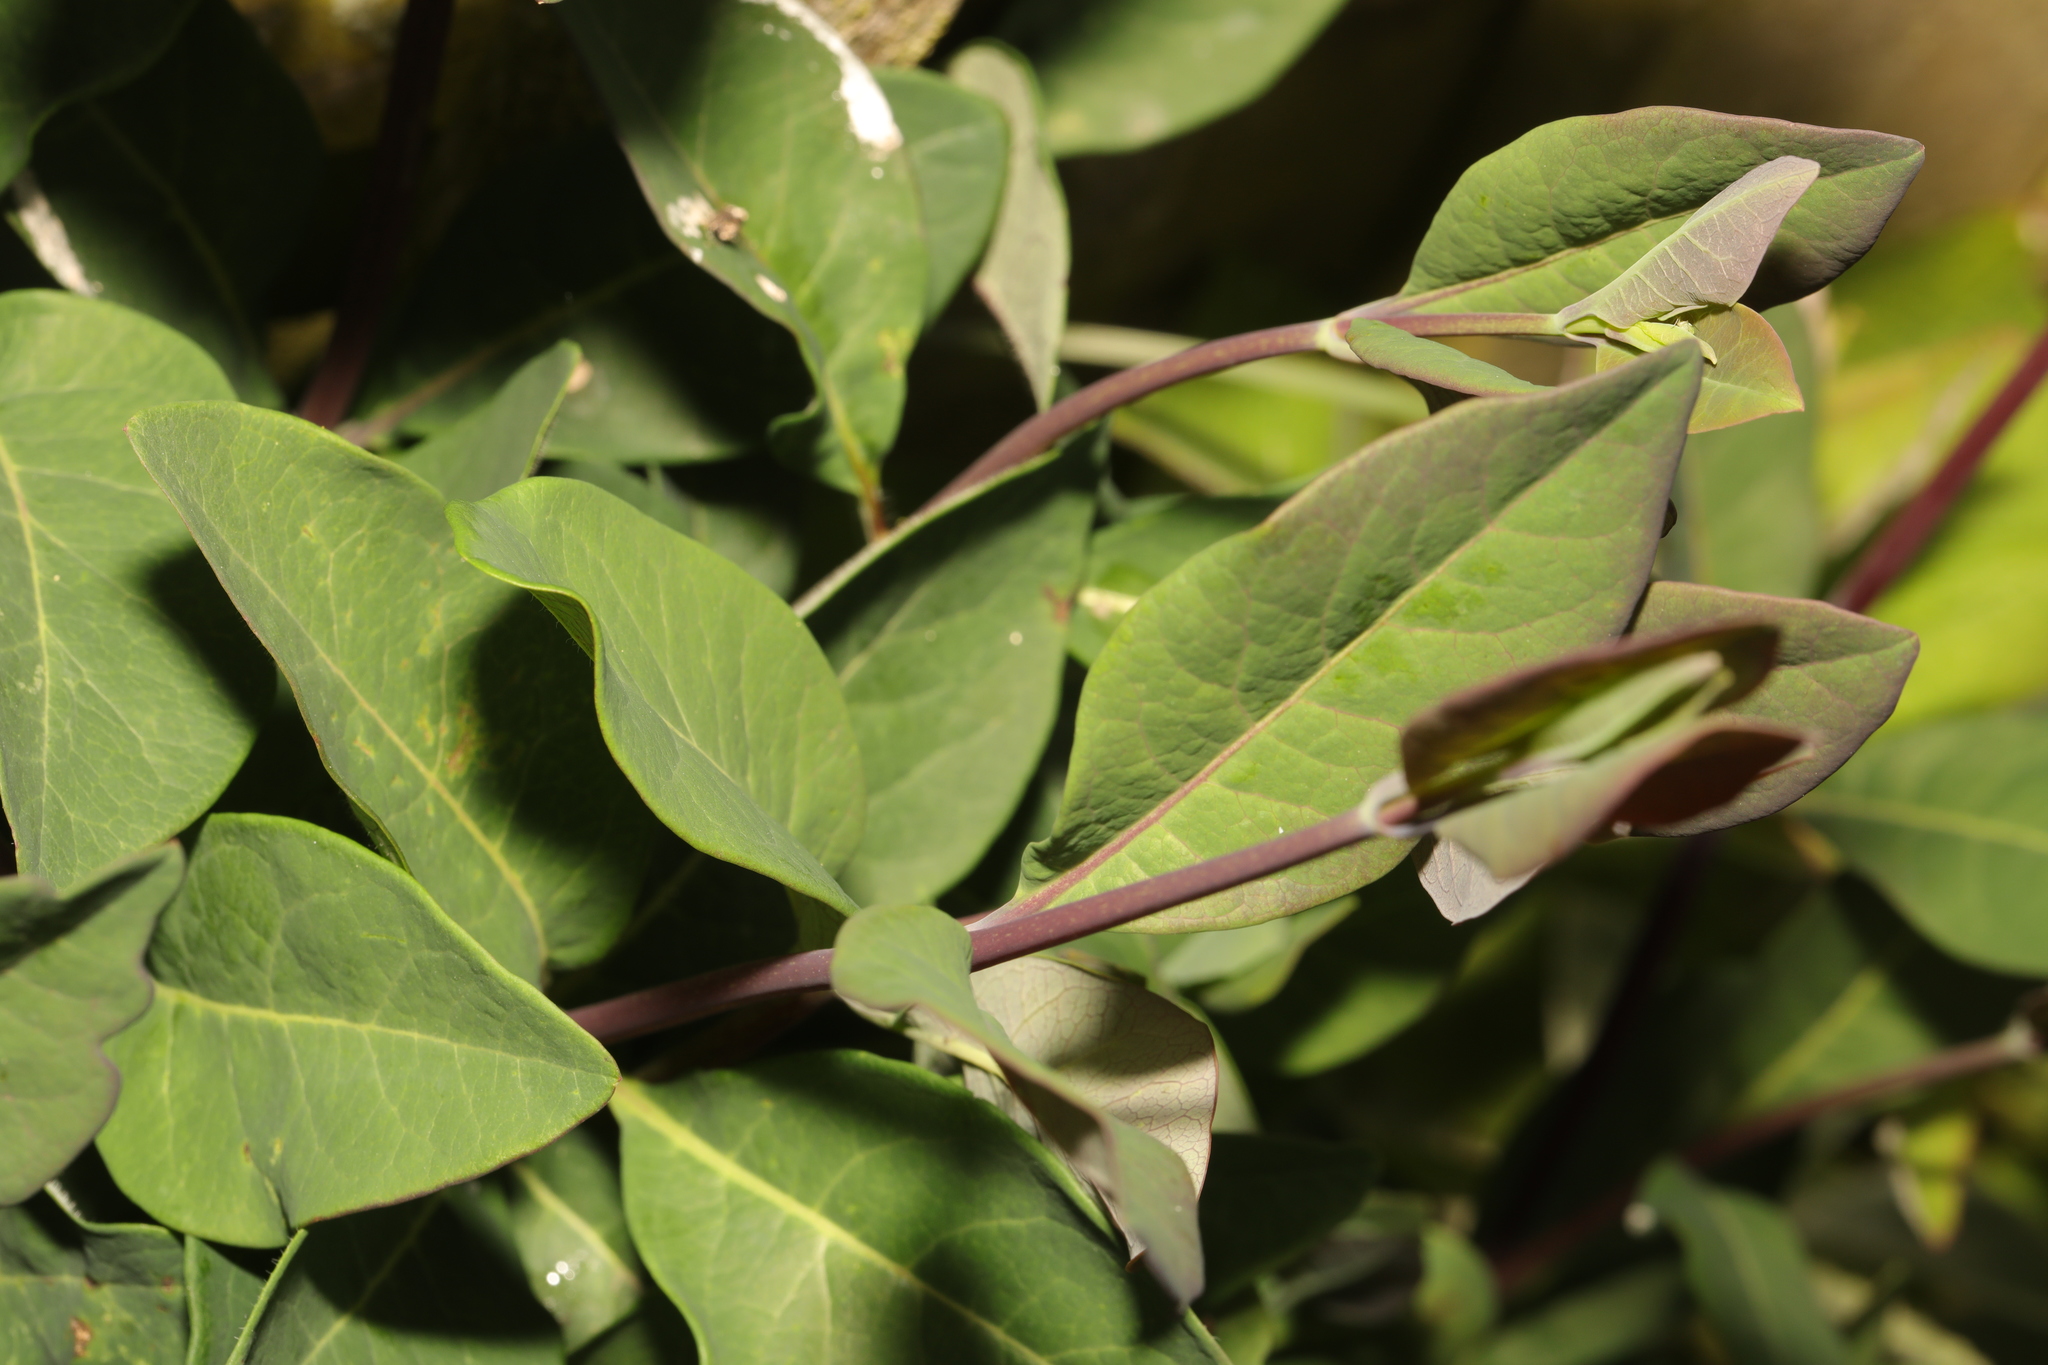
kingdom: Plantae
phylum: Tracheophyta
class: Magnoliopsida
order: Dipsacales
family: Caprifoliaceae
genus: Lonicera
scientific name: Lonicera periclymenum
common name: European honeysuckle
